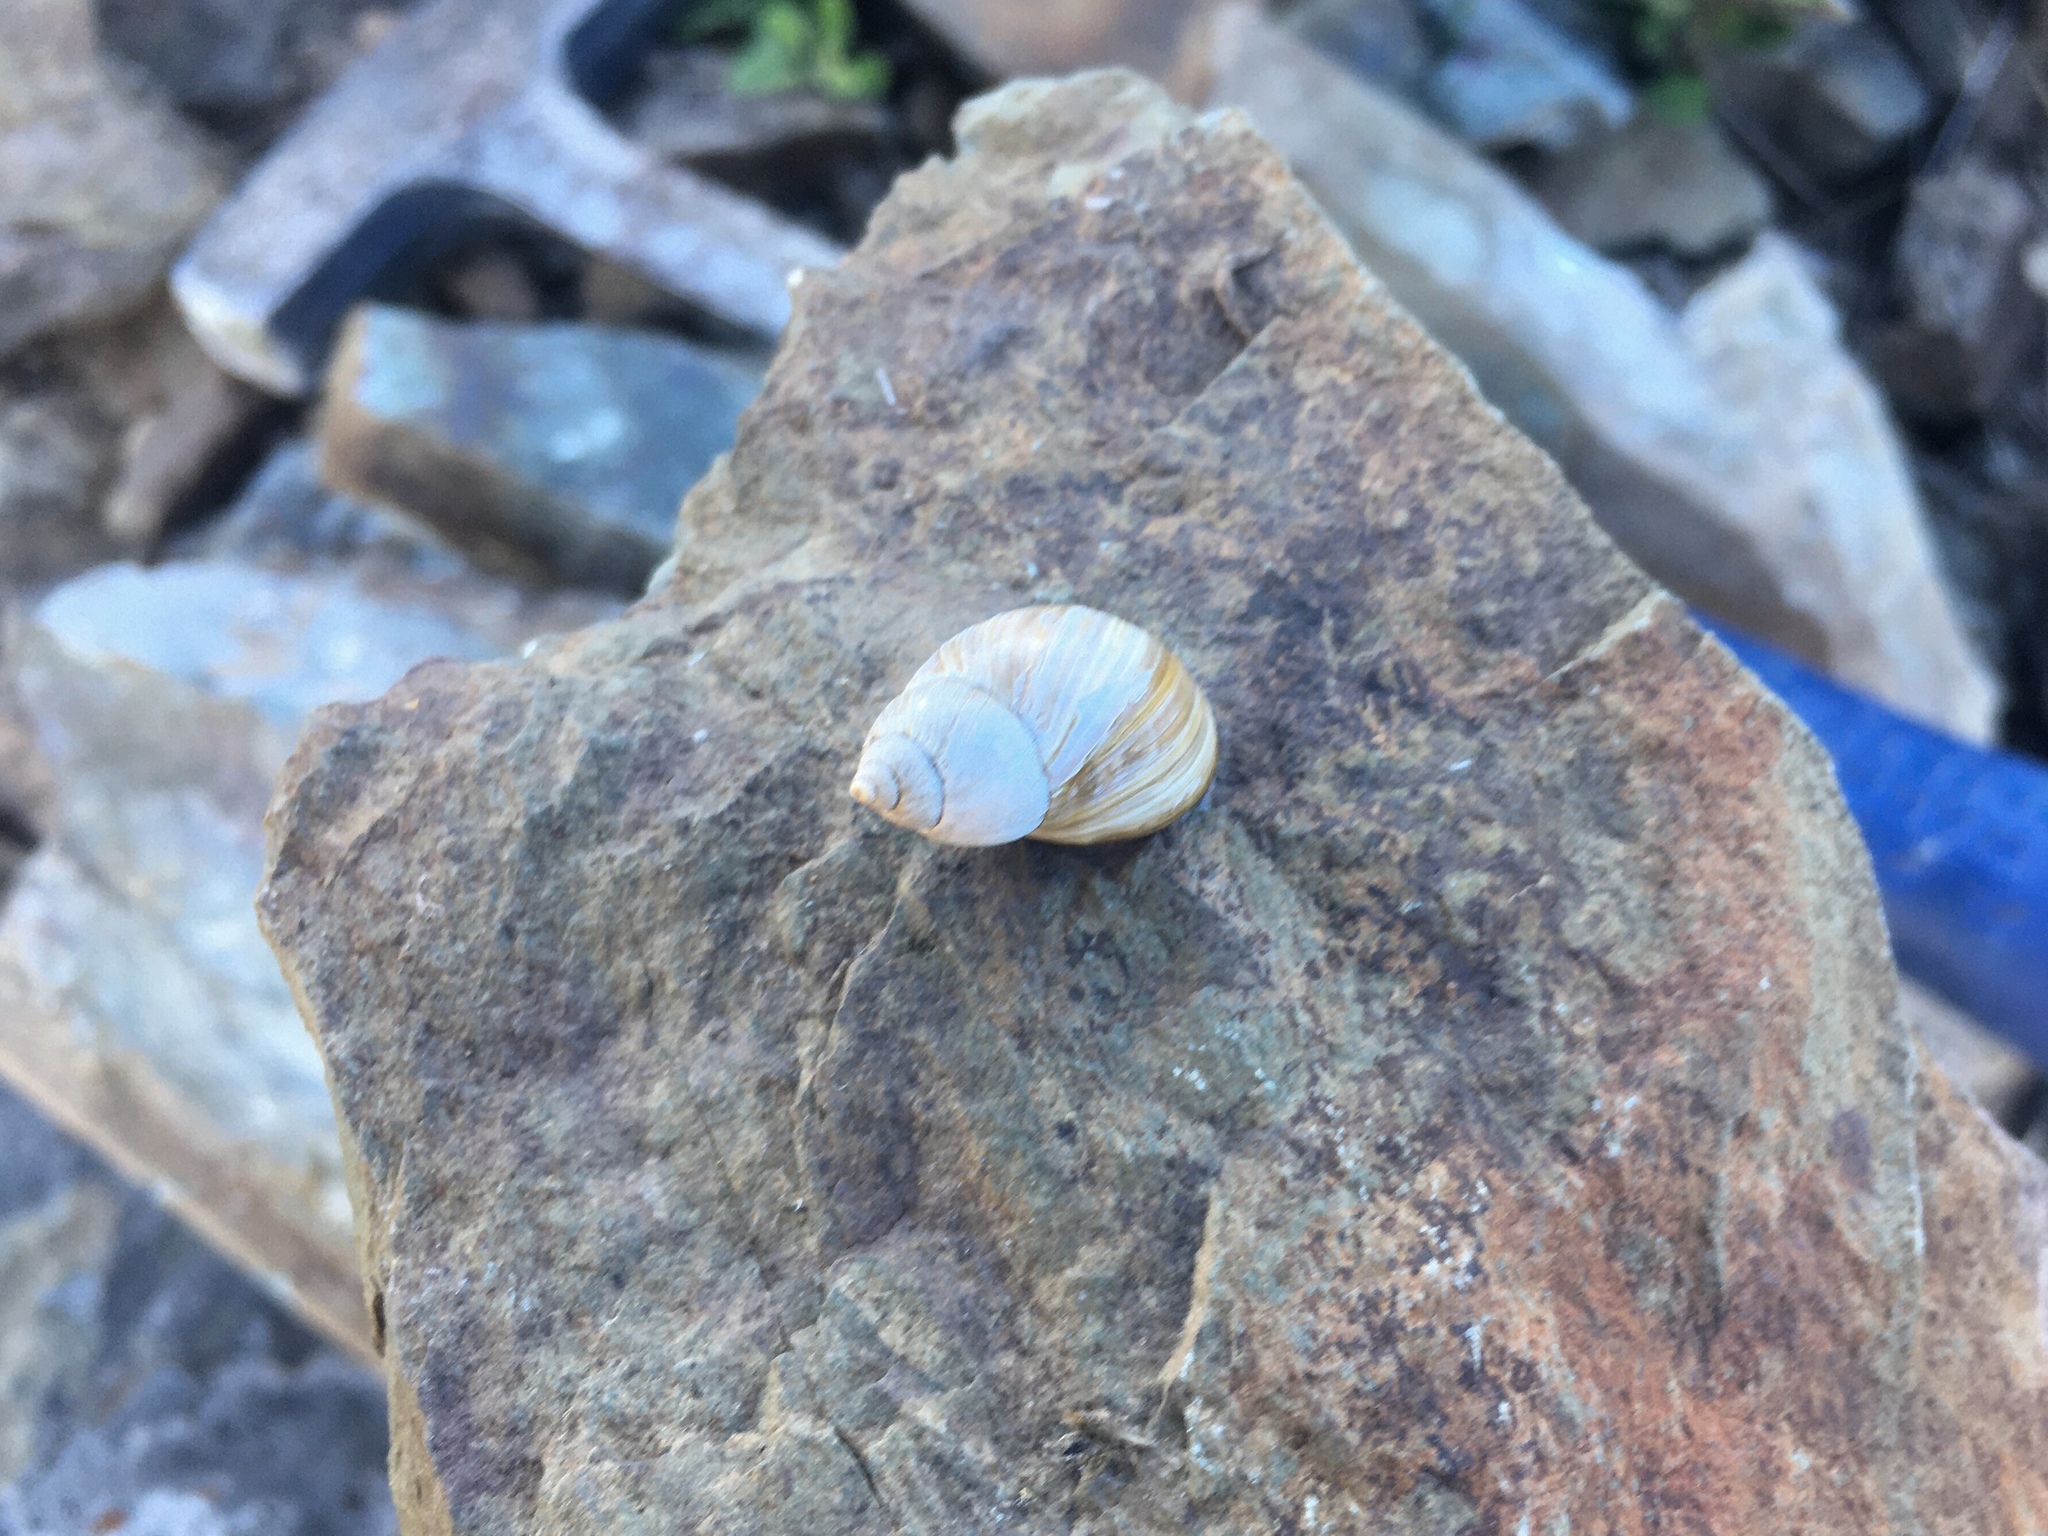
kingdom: Animalia
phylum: Mollusca
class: Gastropoda
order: Stylommatophora
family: Bothriembryontidae
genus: Discoleus
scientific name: Discoleus aguirrei
